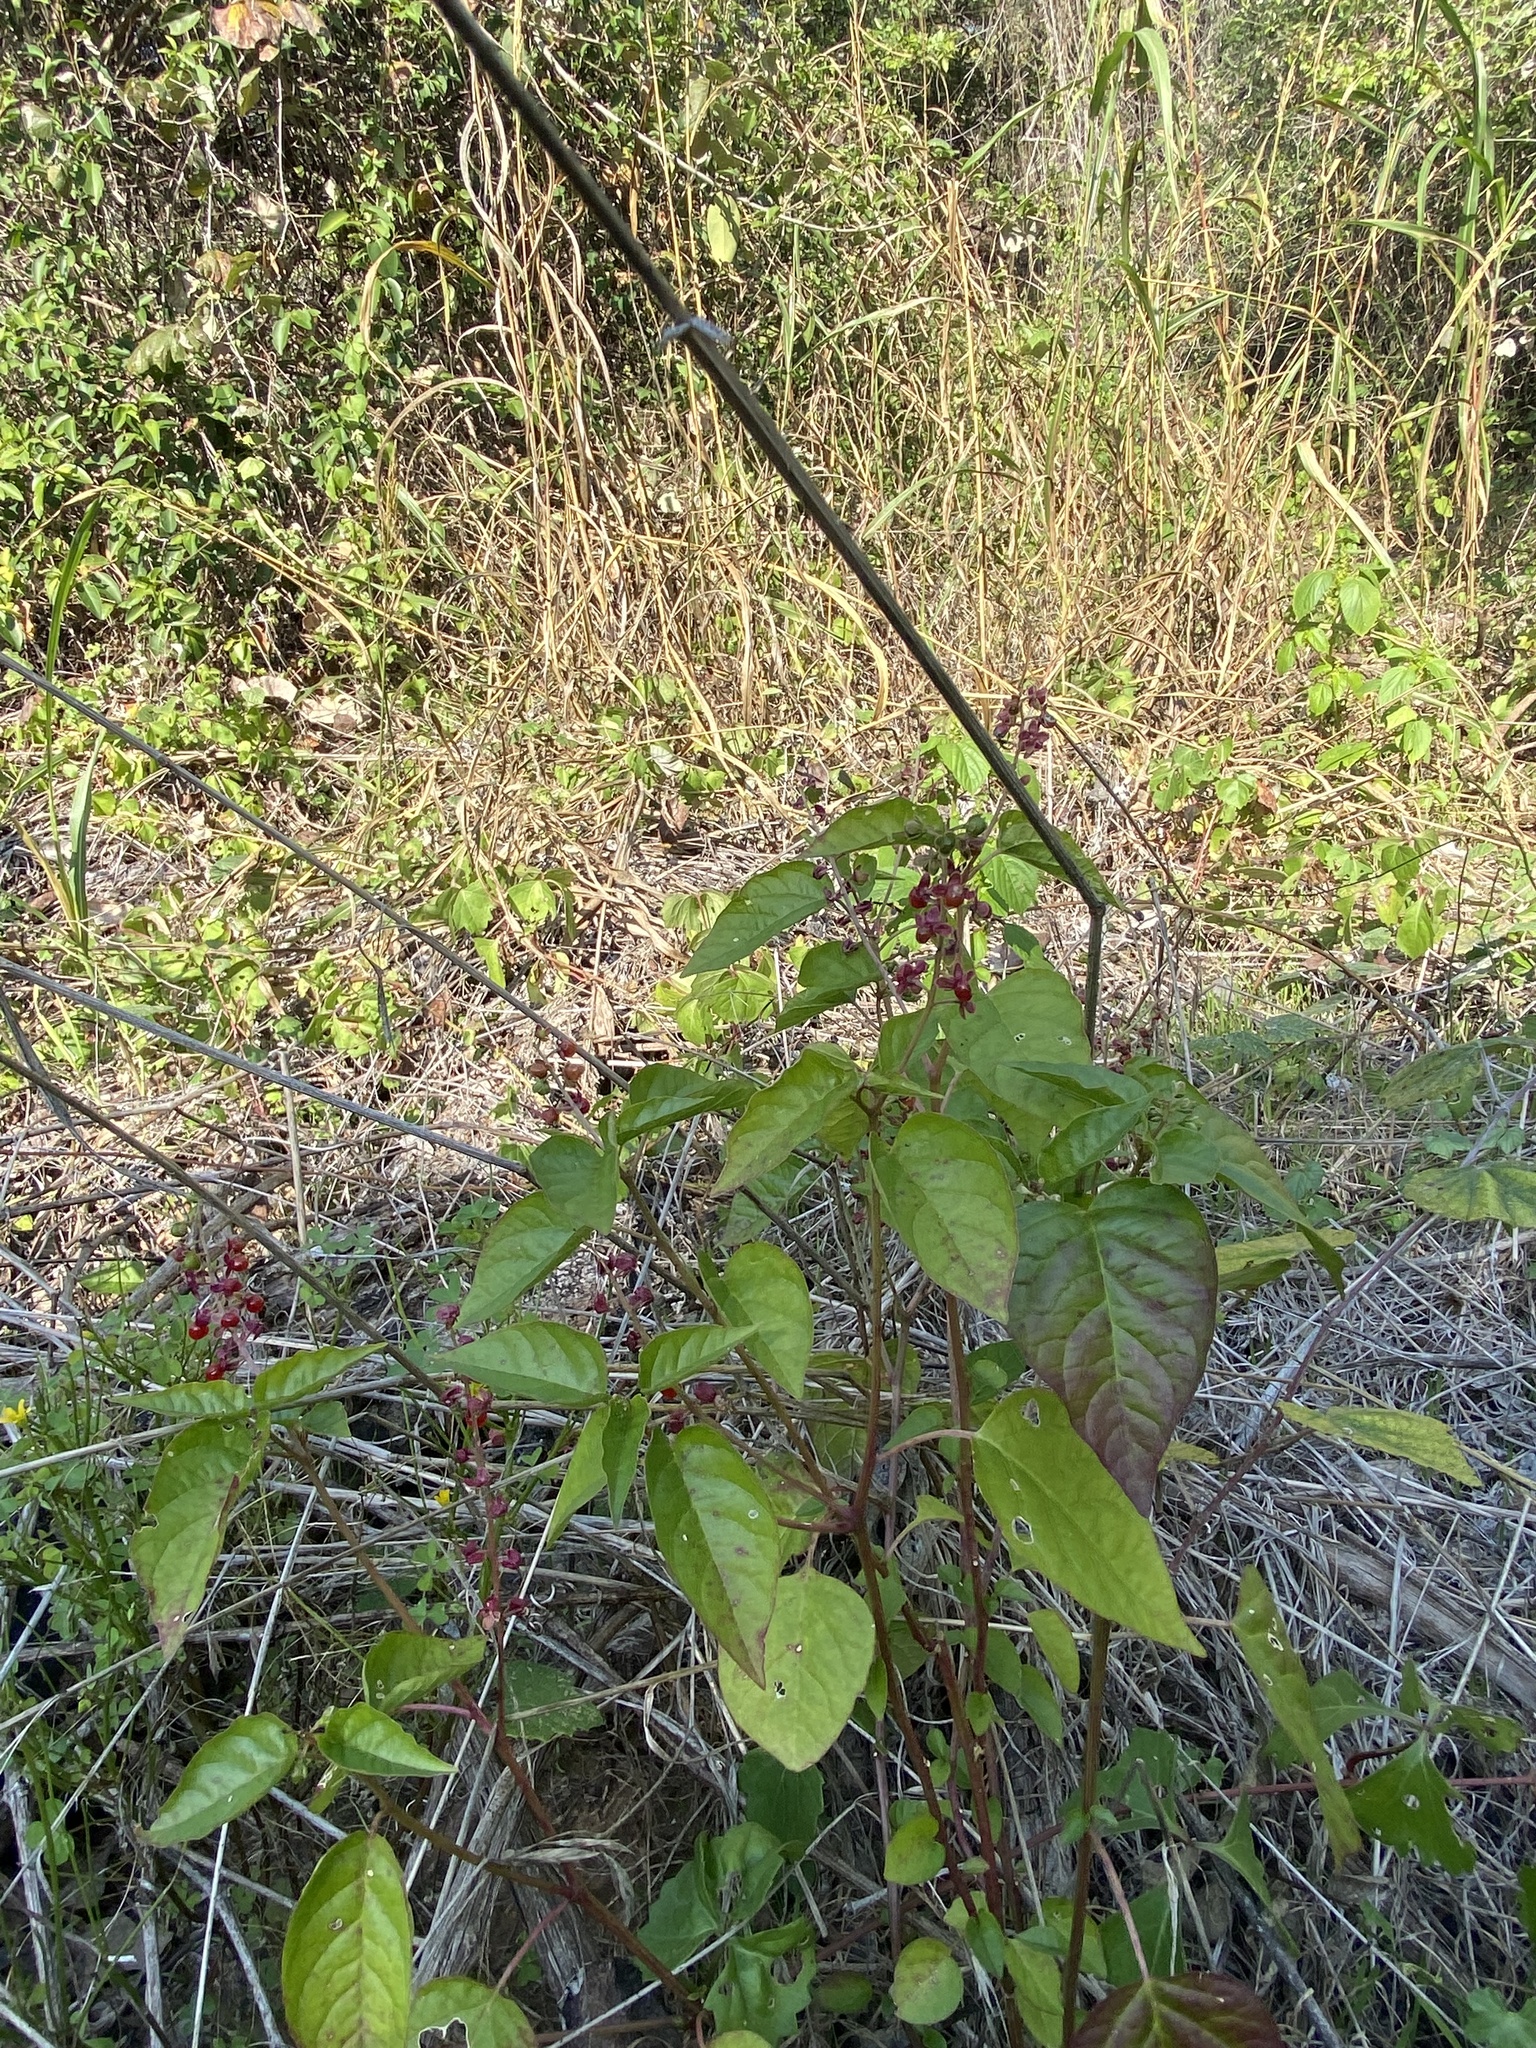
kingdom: Plantae
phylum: Tracheophyta
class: Magnoliopsida
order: Caryophyllales
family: Phytolaccaceae
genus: Rivina
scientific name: Rivina humilis
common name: Rougeplant
